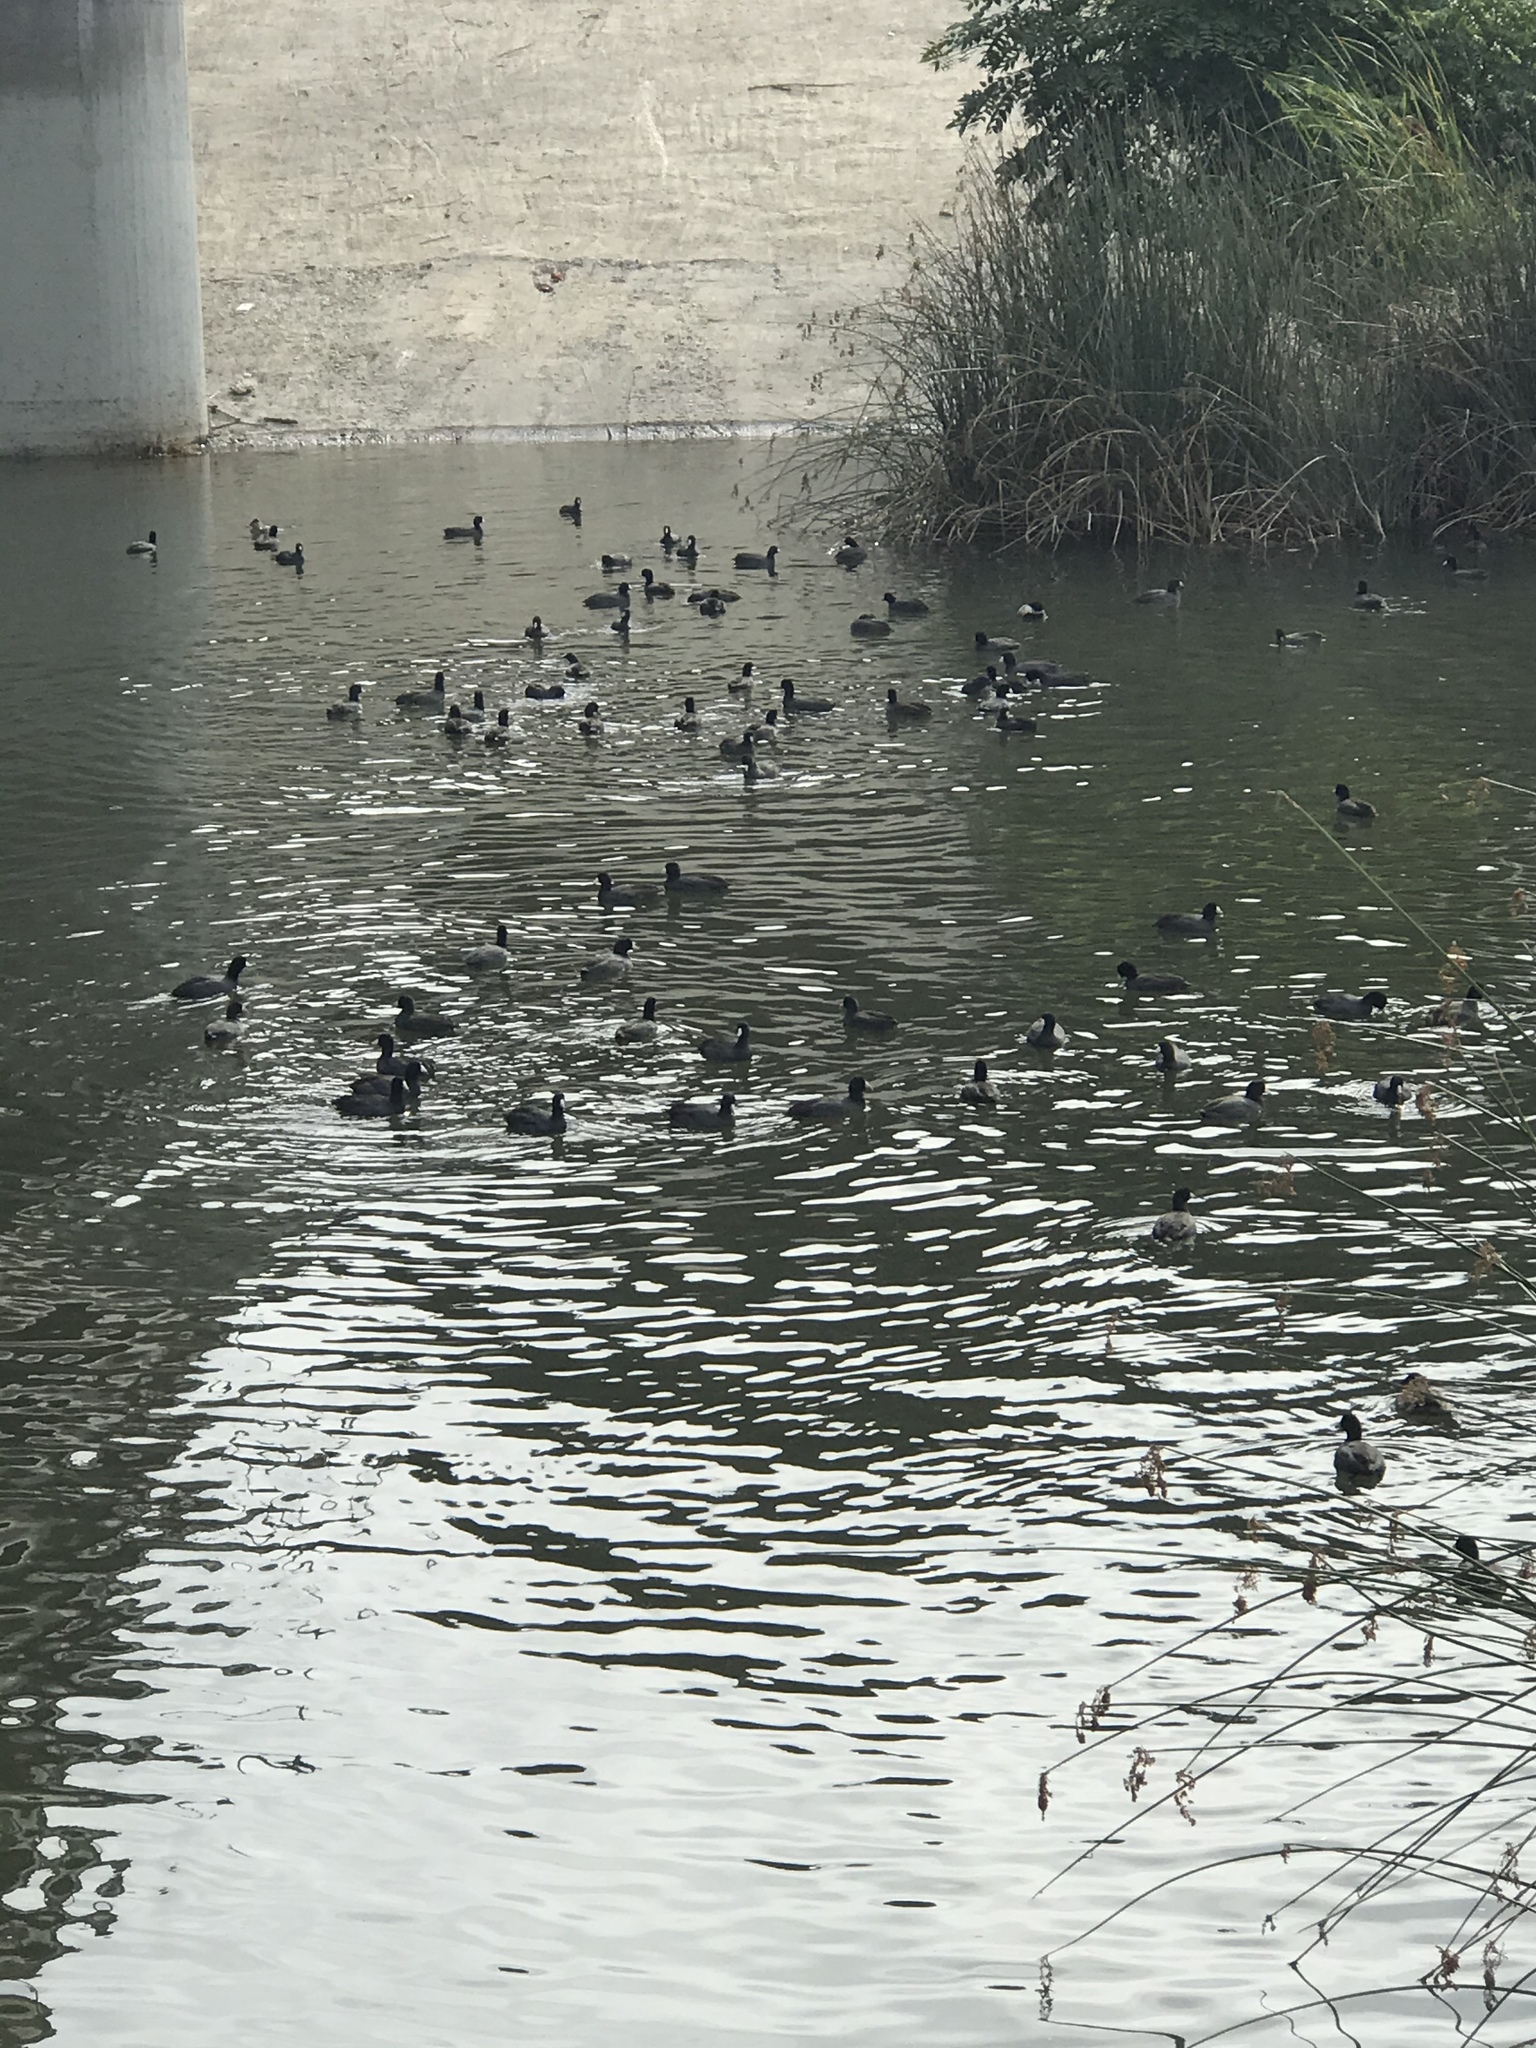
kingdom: Animalia
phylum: Chordata
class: Aves
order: Gruiformes
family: Rallidae
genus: Fulica
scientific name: Fulica americana
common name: American coot
